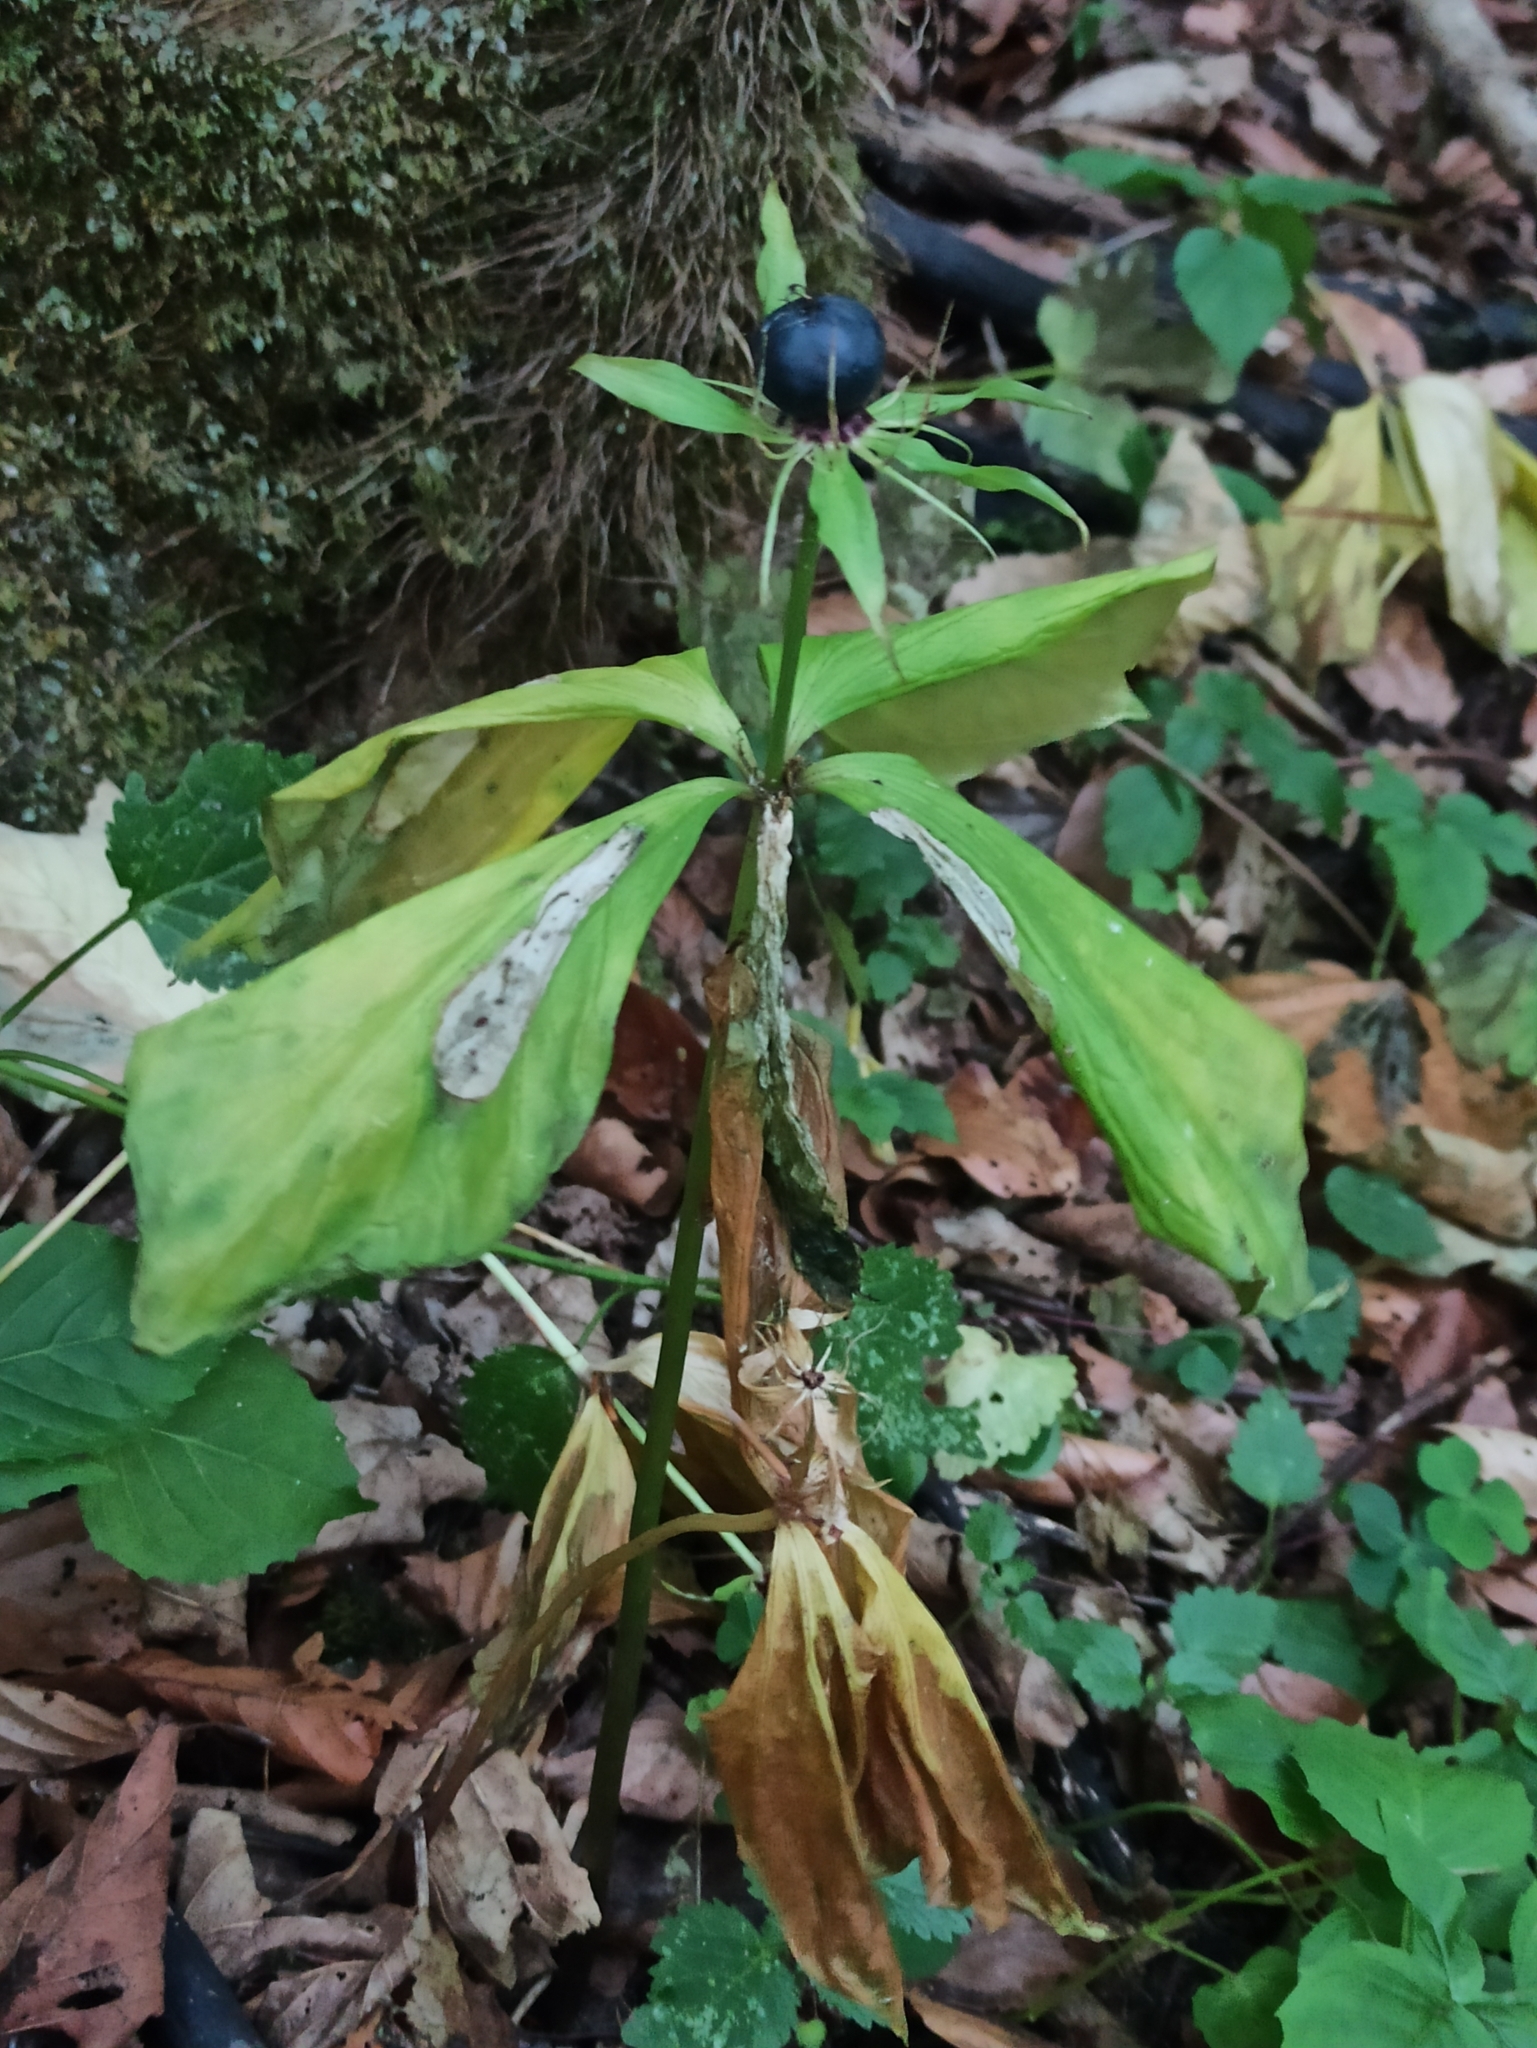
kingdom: Plantae
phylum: Tracheophyta
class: Liliopsida
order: Liliales
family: Melanthiaceae
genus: Paris
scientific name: Paris quadrifolia
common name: Herb-paris
